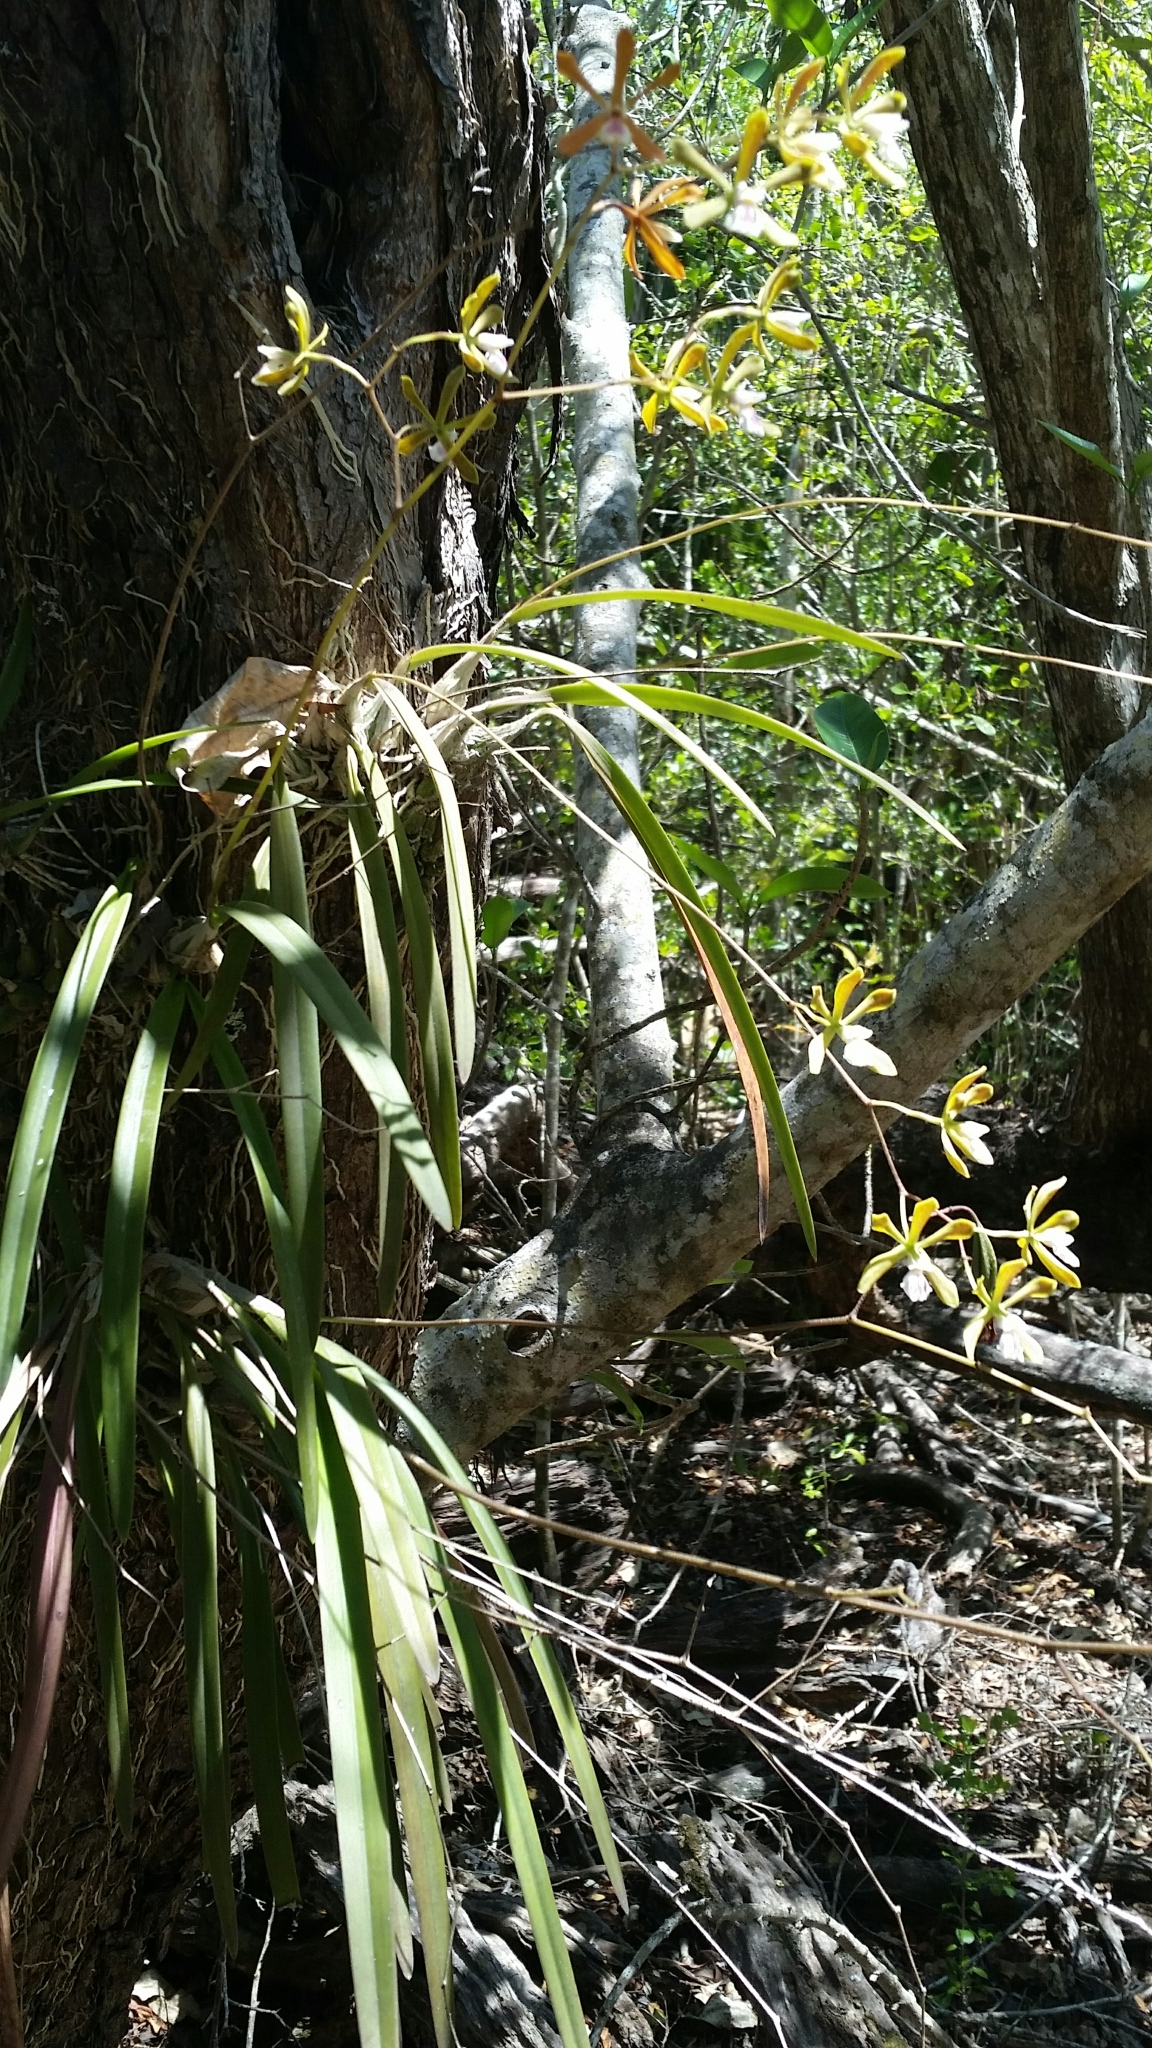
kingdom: Plantae
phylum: Tracheophyta
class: Liliopsida
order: Asparagales
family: Orchidaceae
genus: Encyclia
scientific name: Encyclia tampensis
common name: Florida butterfly orchid
